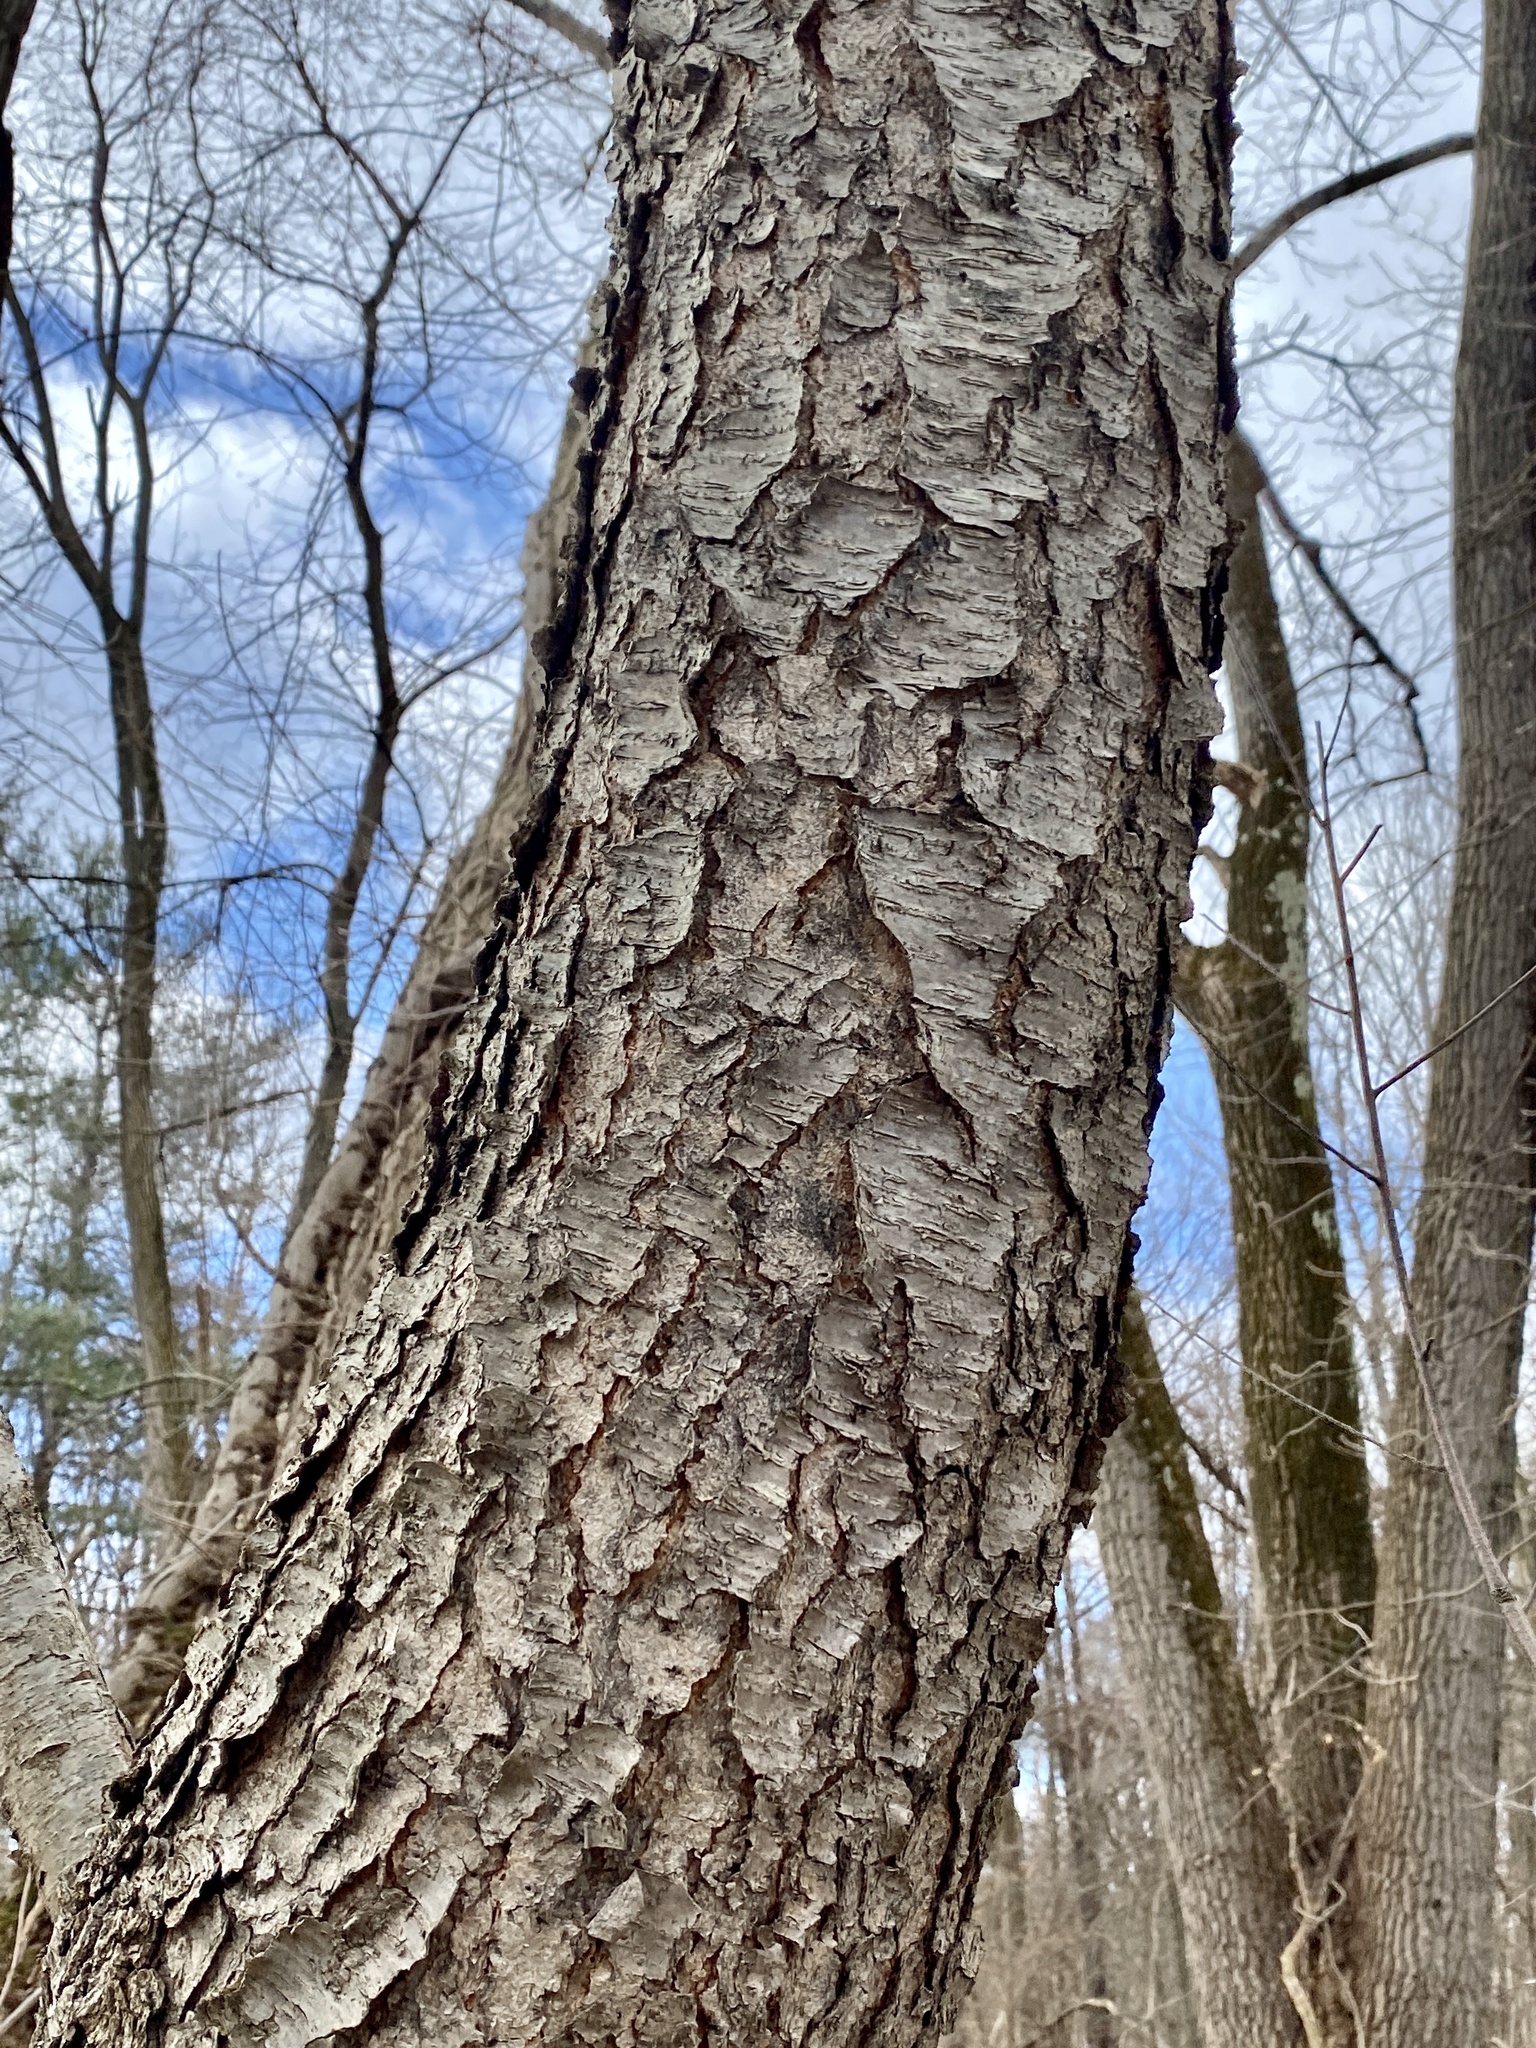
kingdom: Plantae
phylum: Tracheophyta
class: Magnoliopsida
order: Rosales
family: Rosaceae
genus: Prunus
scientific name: Prunus serotina
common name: Black cherry
